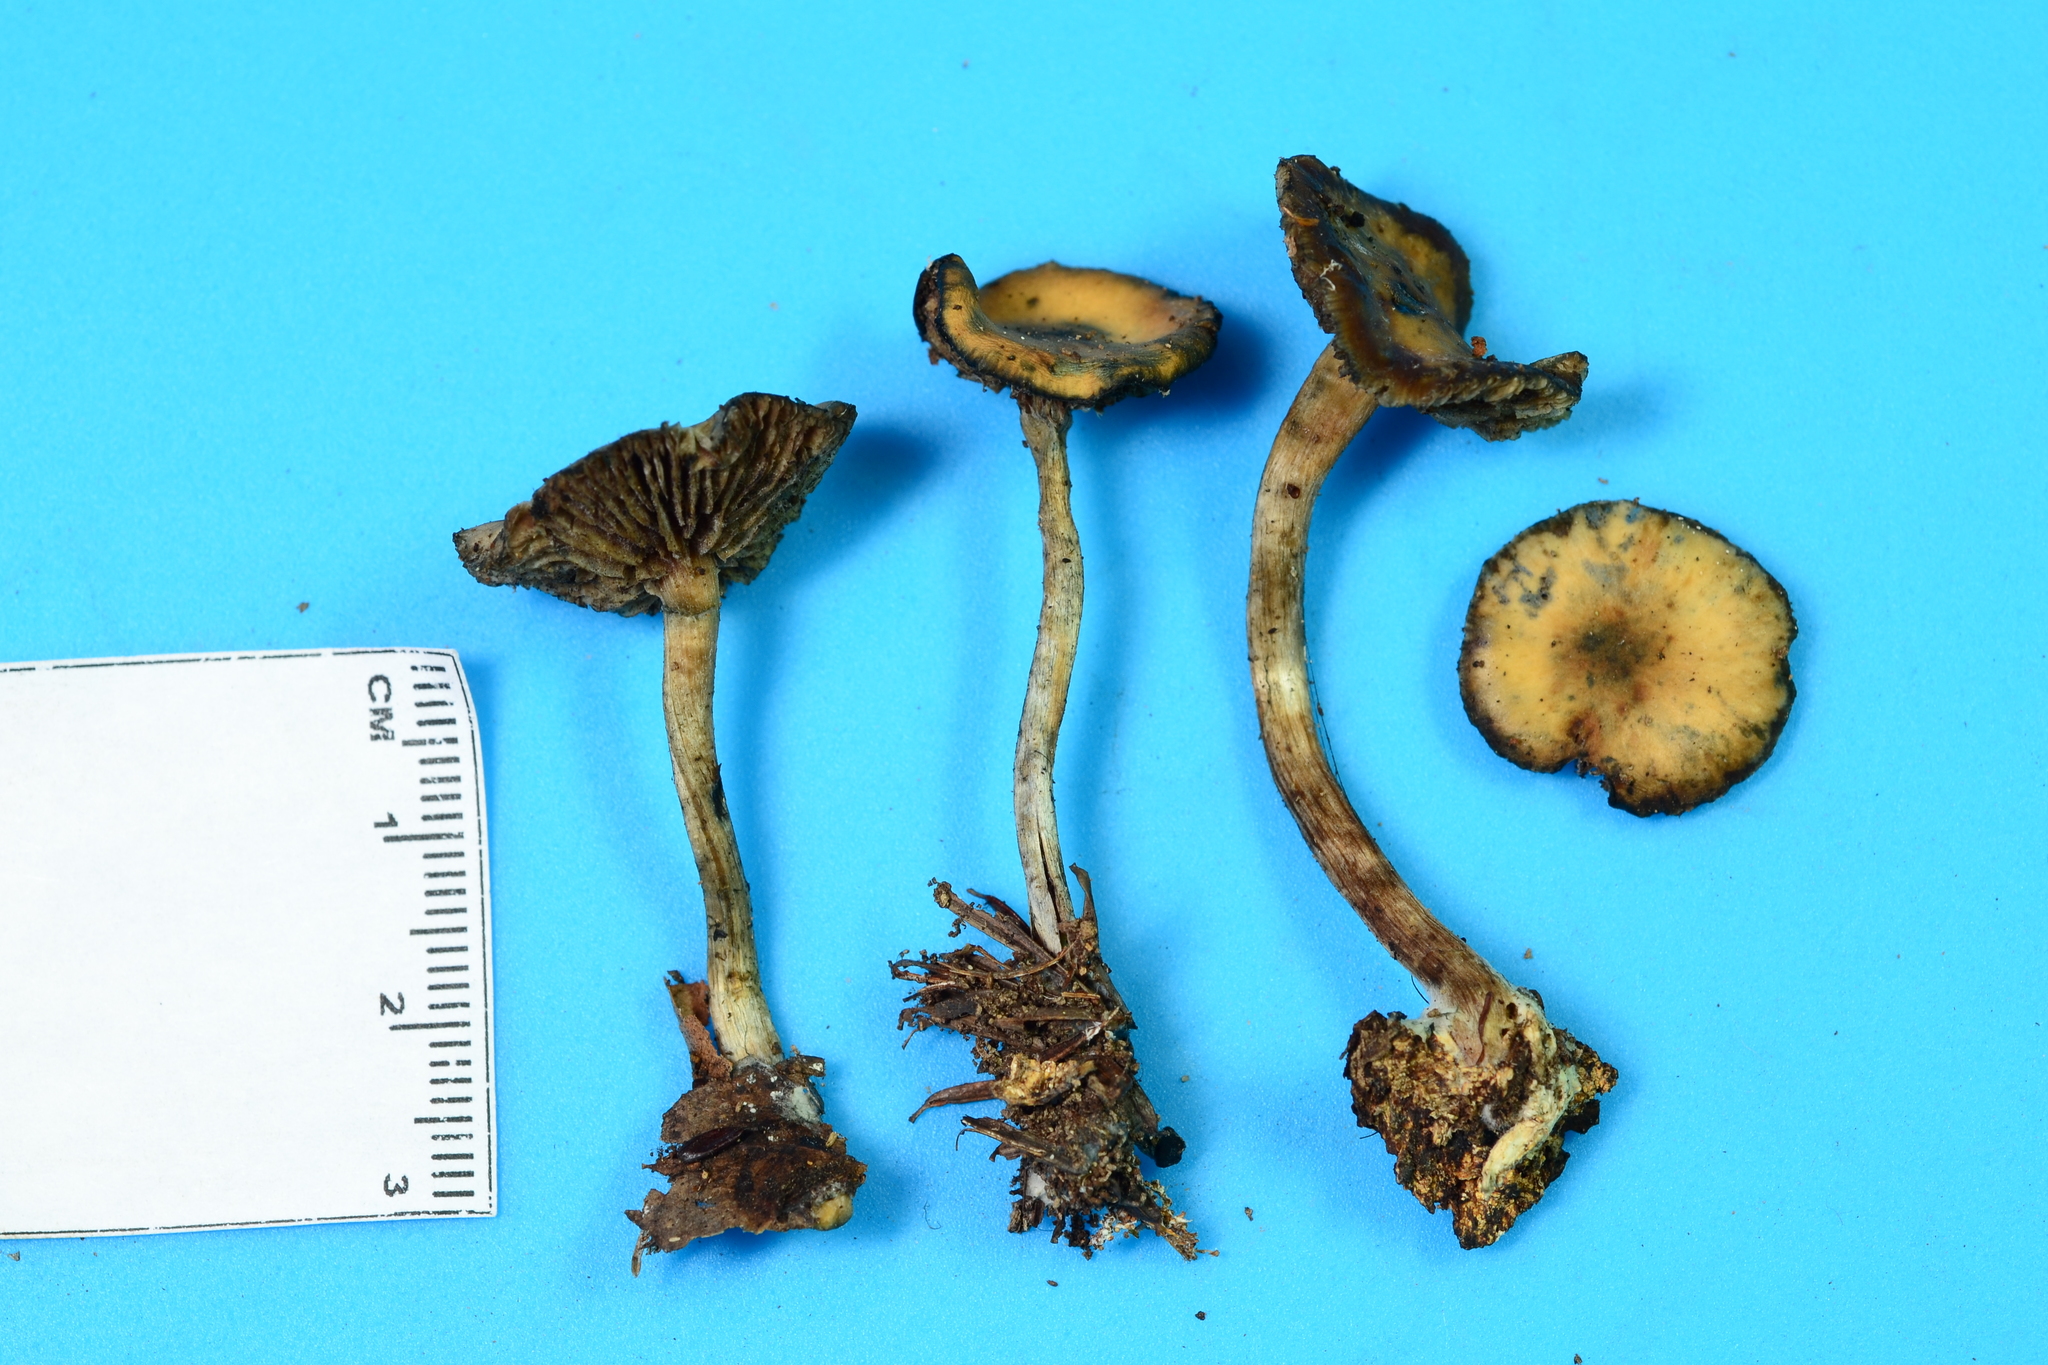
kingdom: Fungi
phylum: Basidiomycota
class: Agaricomycetes
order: Agaricales
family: Hymenogastraceae
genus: Psilocybe
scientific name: Psilocybe caerulipes
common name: Blue-foot
